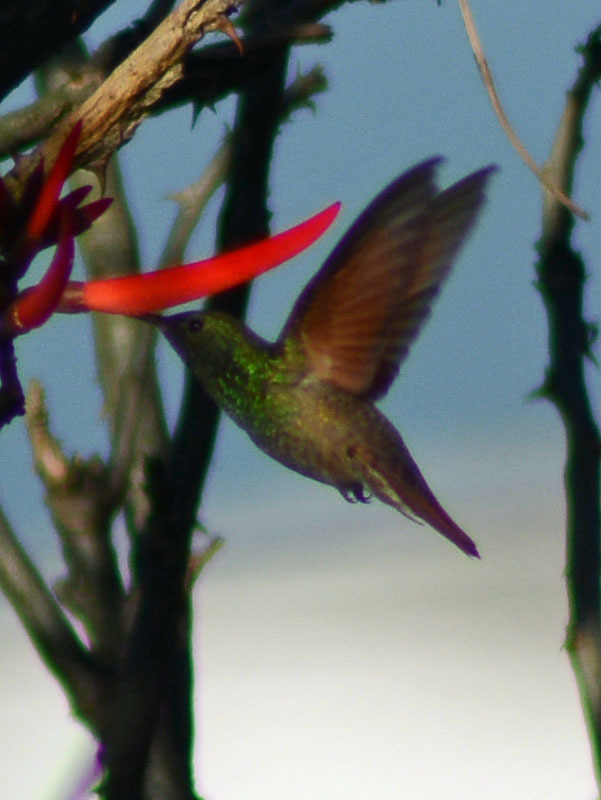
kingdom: Animalia
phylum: Chordata
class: Aves
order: Apodiformes
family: Trochilidae
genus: Saucerottia
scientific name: Saucerottia beryllina
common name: Berylline hummingbird
